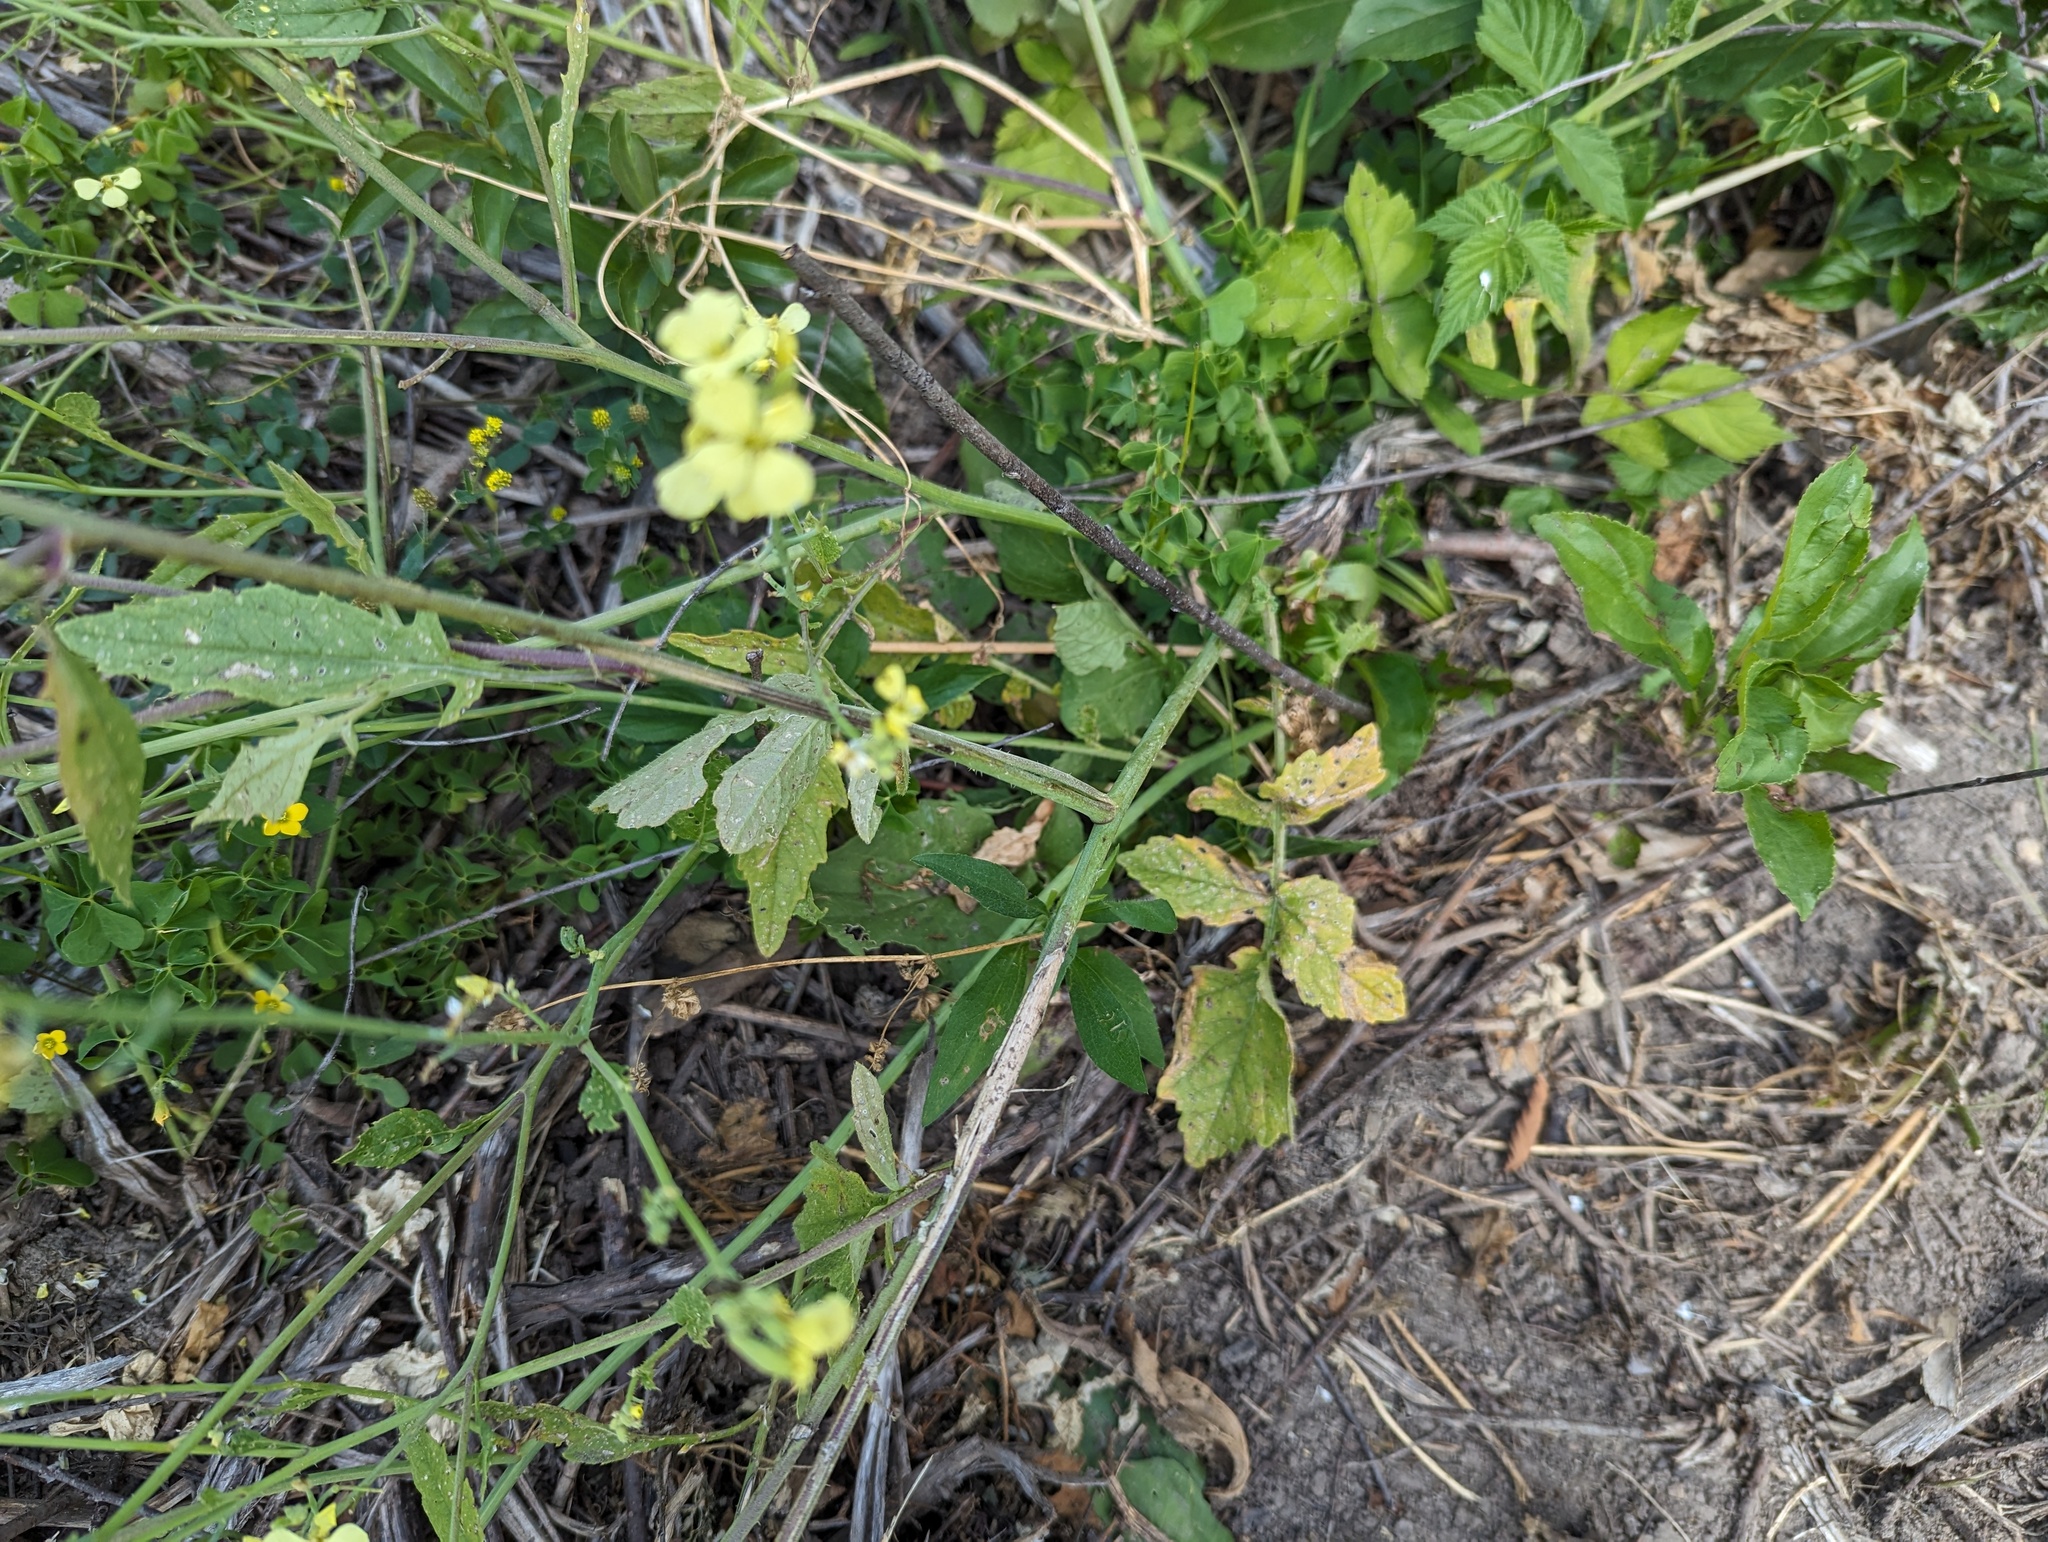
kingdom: Plantae
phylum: Tracheophyta
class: Magnoliopsida
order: Brassicales
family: Brassicaceae
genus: Raphanus
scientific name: Raphanus raphanistrum
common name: Wild radish
